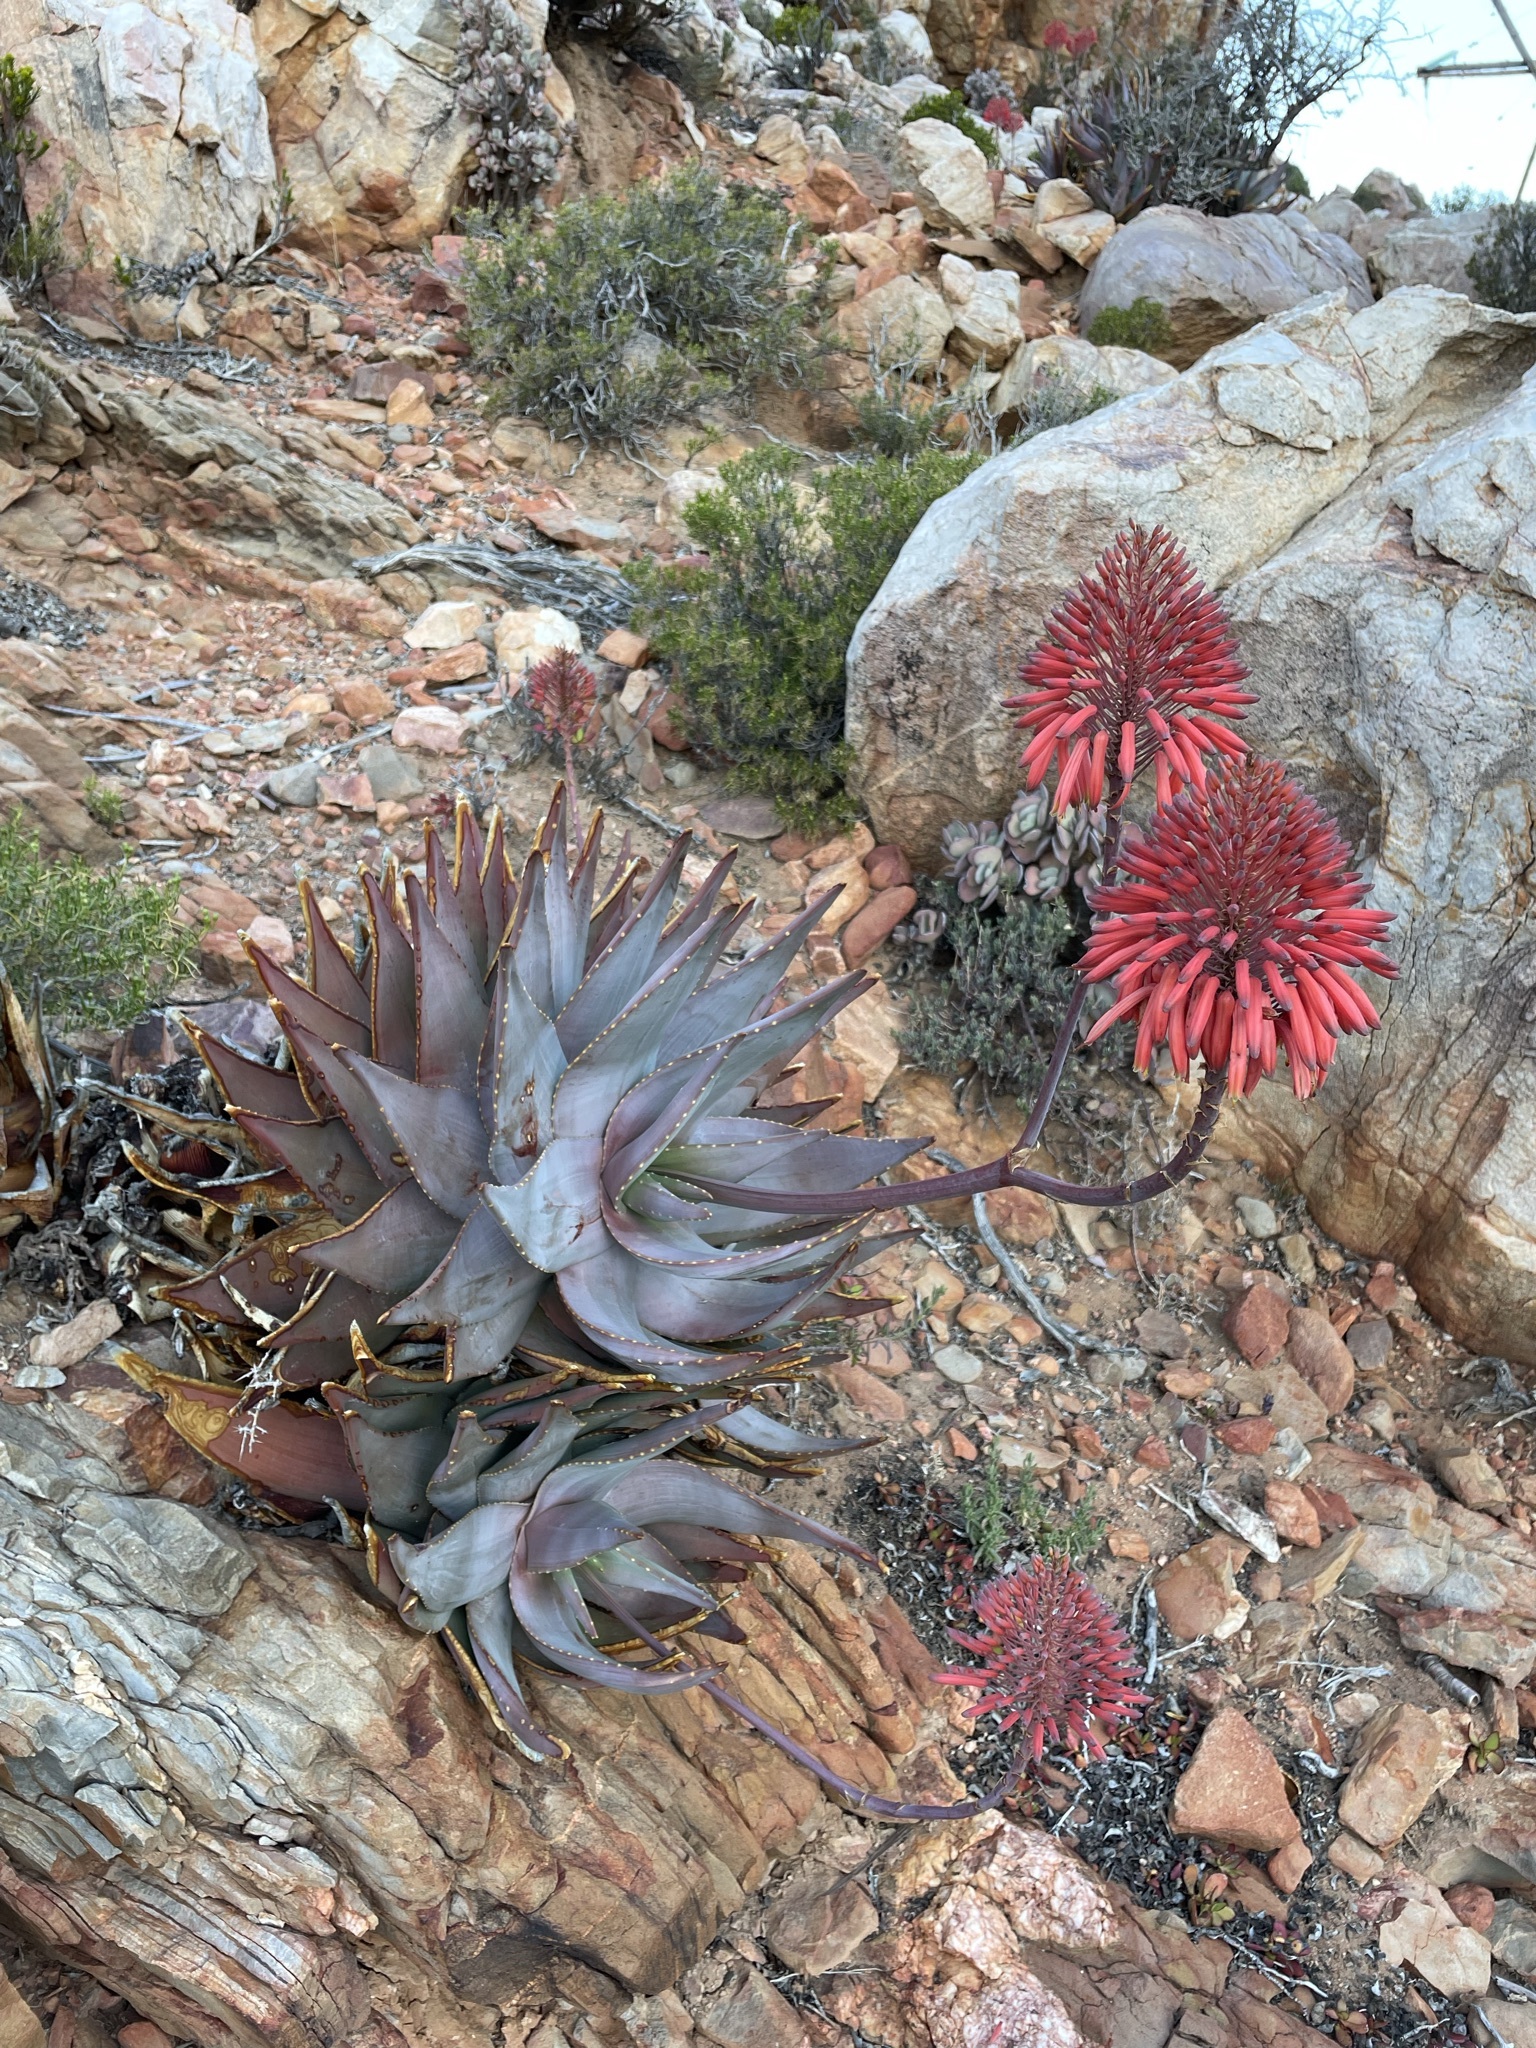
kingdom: Plantae
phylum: Tracheophyta
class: Liliopsida
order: Asparagales
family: Asphodelaceae
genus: Aloe
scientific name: Aloe comptonii
